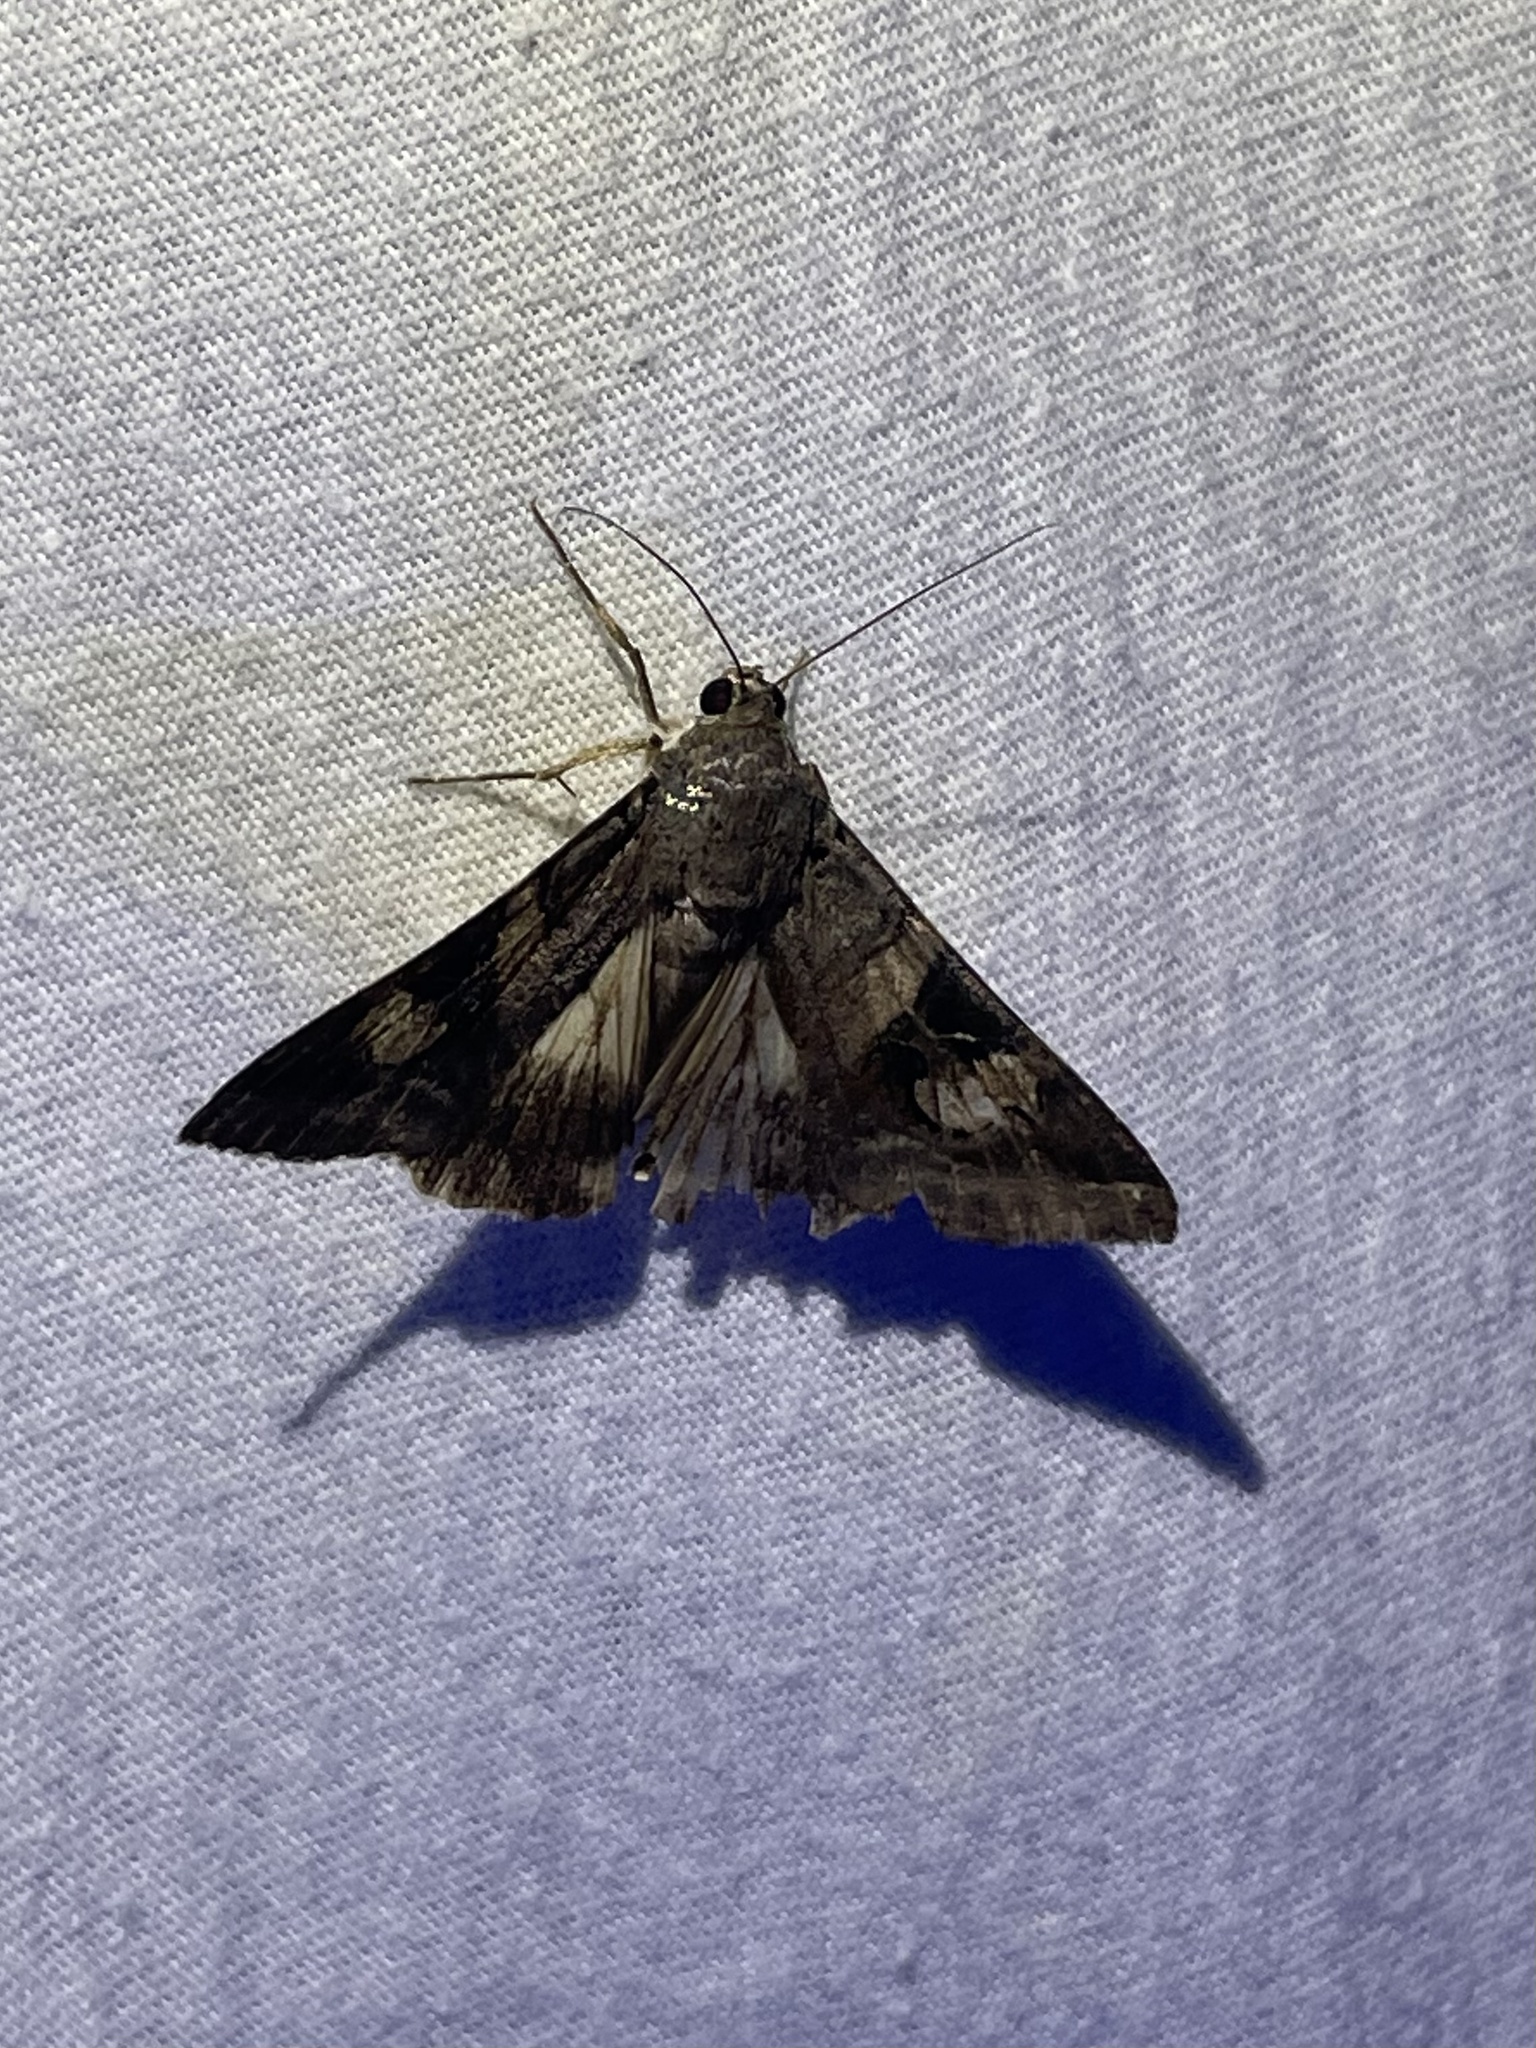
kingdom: Animalia
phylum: Arthropoda
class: Insecta
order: Lepidoptera
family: Erebidae
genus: Melipotis
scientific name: Melipotis indomita
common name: Moth
